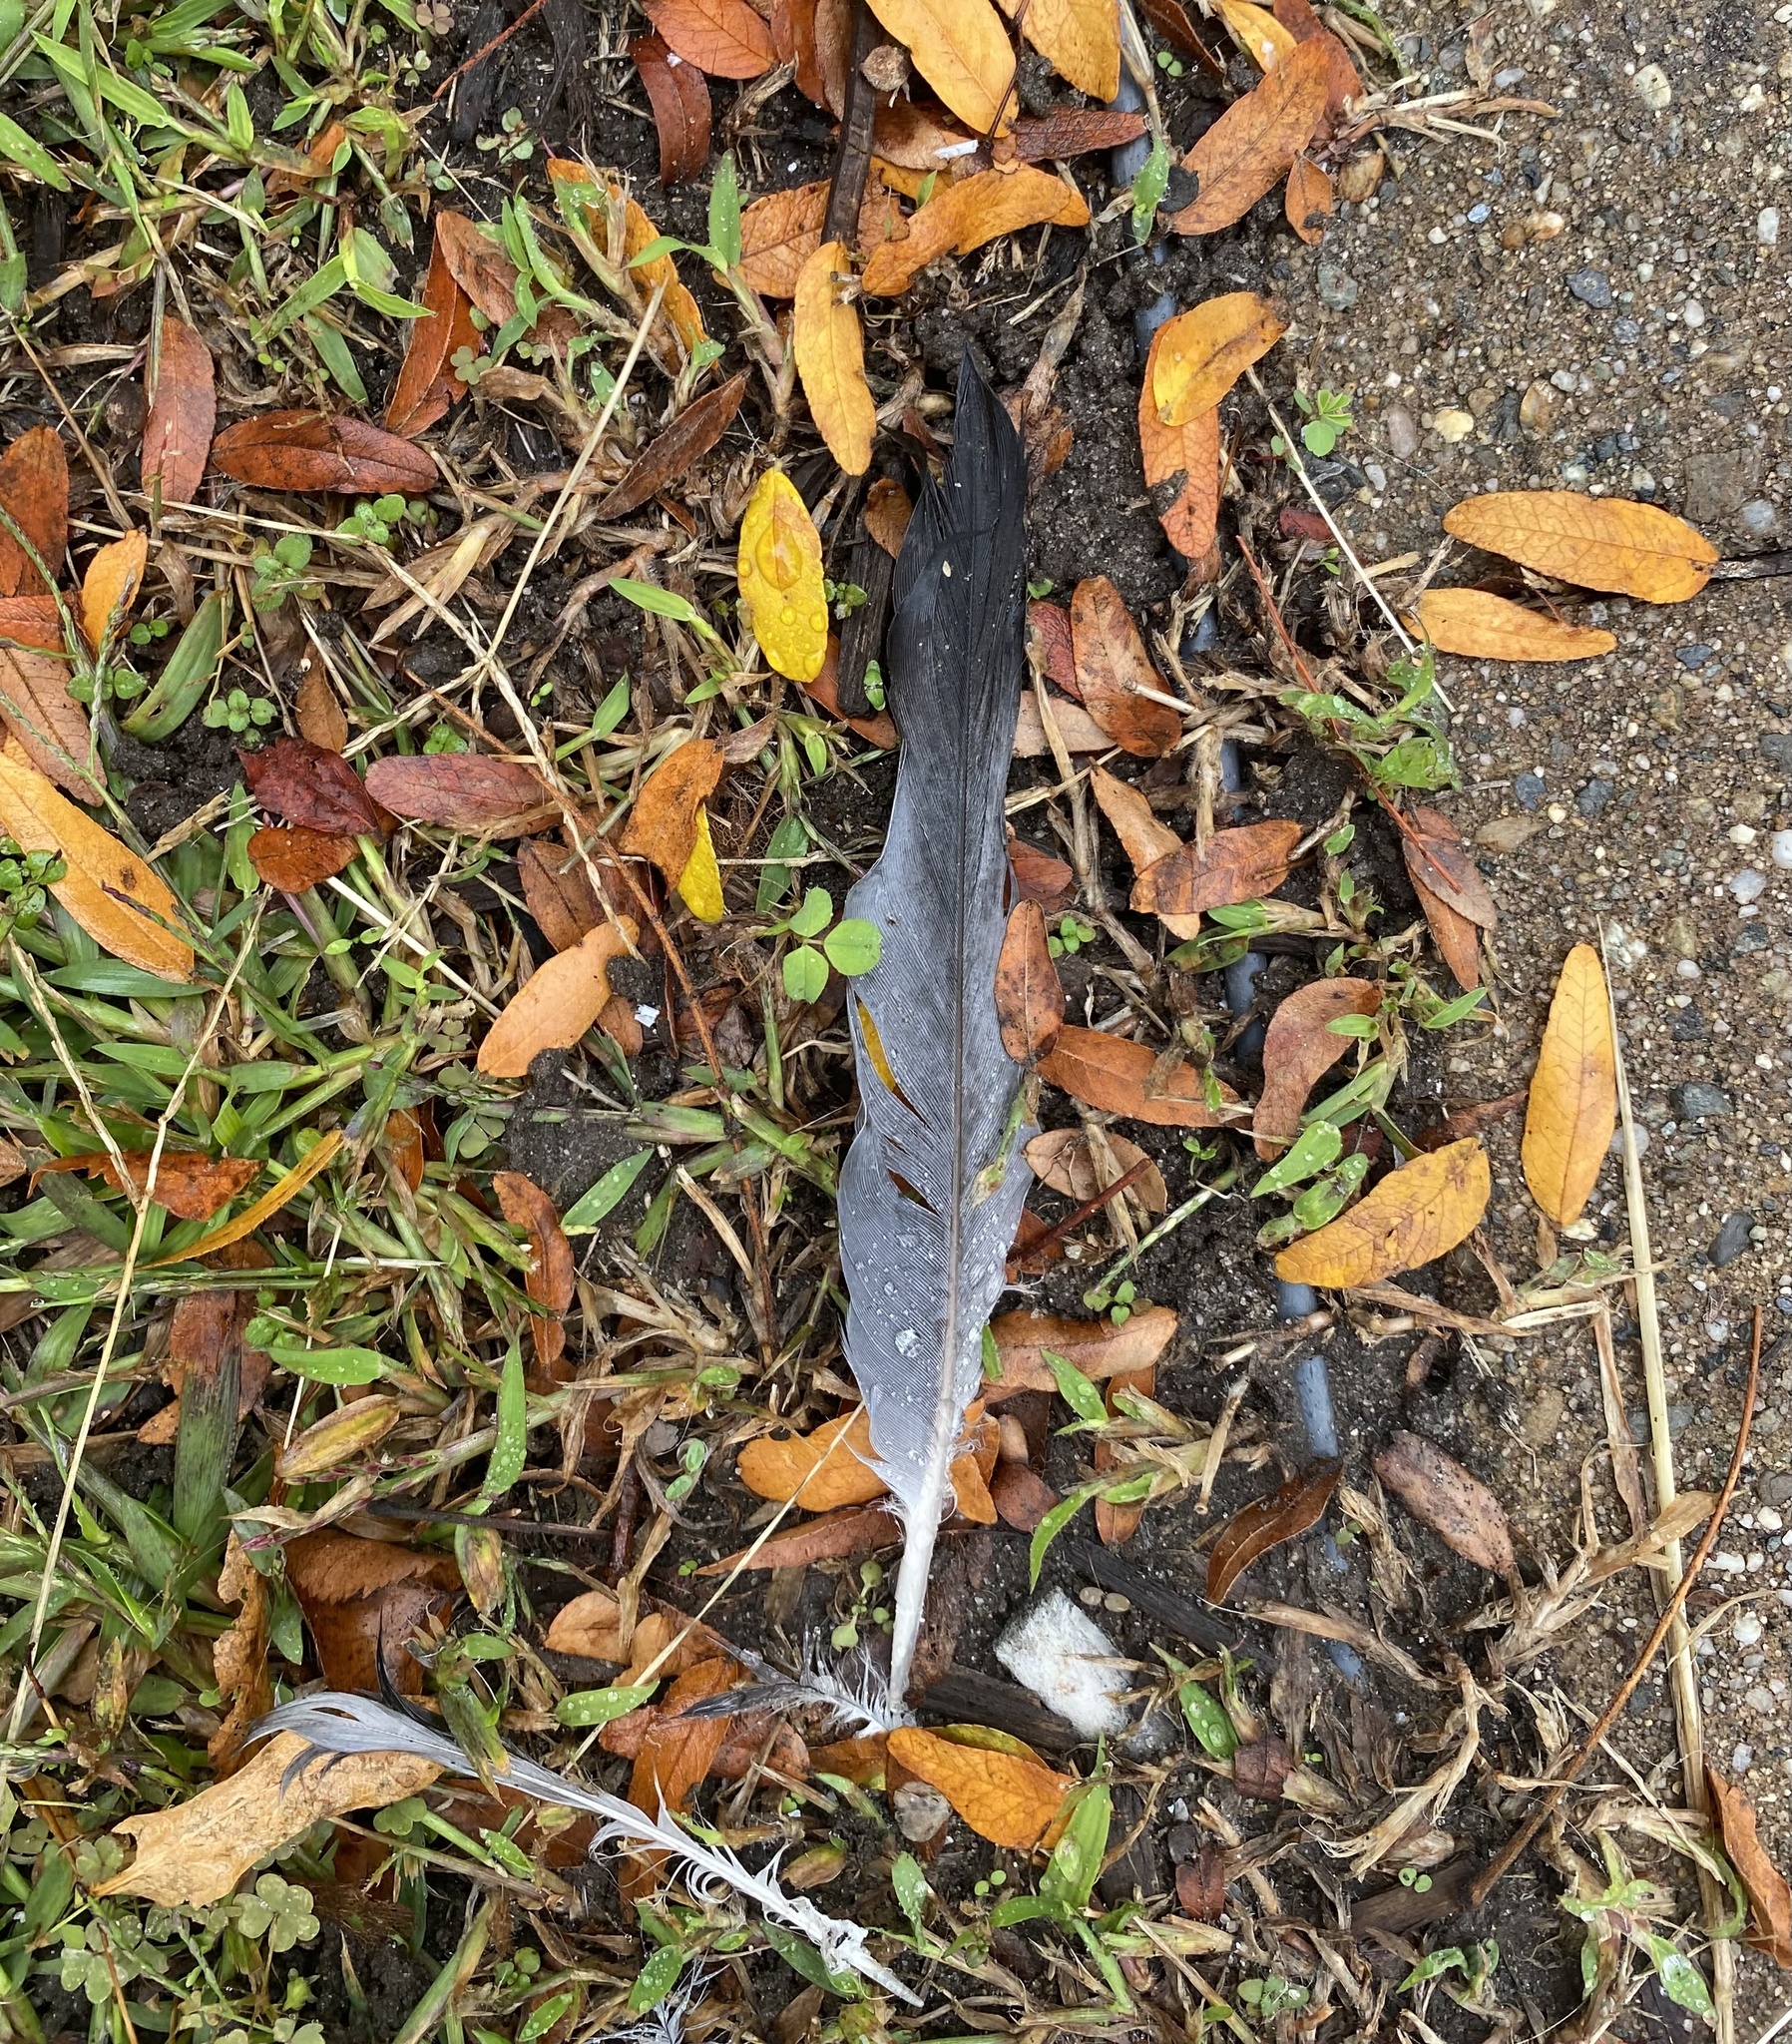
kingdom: Animalia
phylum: Chordata
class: Aves
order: Columbiformes
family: Columbidae
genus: Columba
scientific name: Columba livia
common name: Rock pigeon
